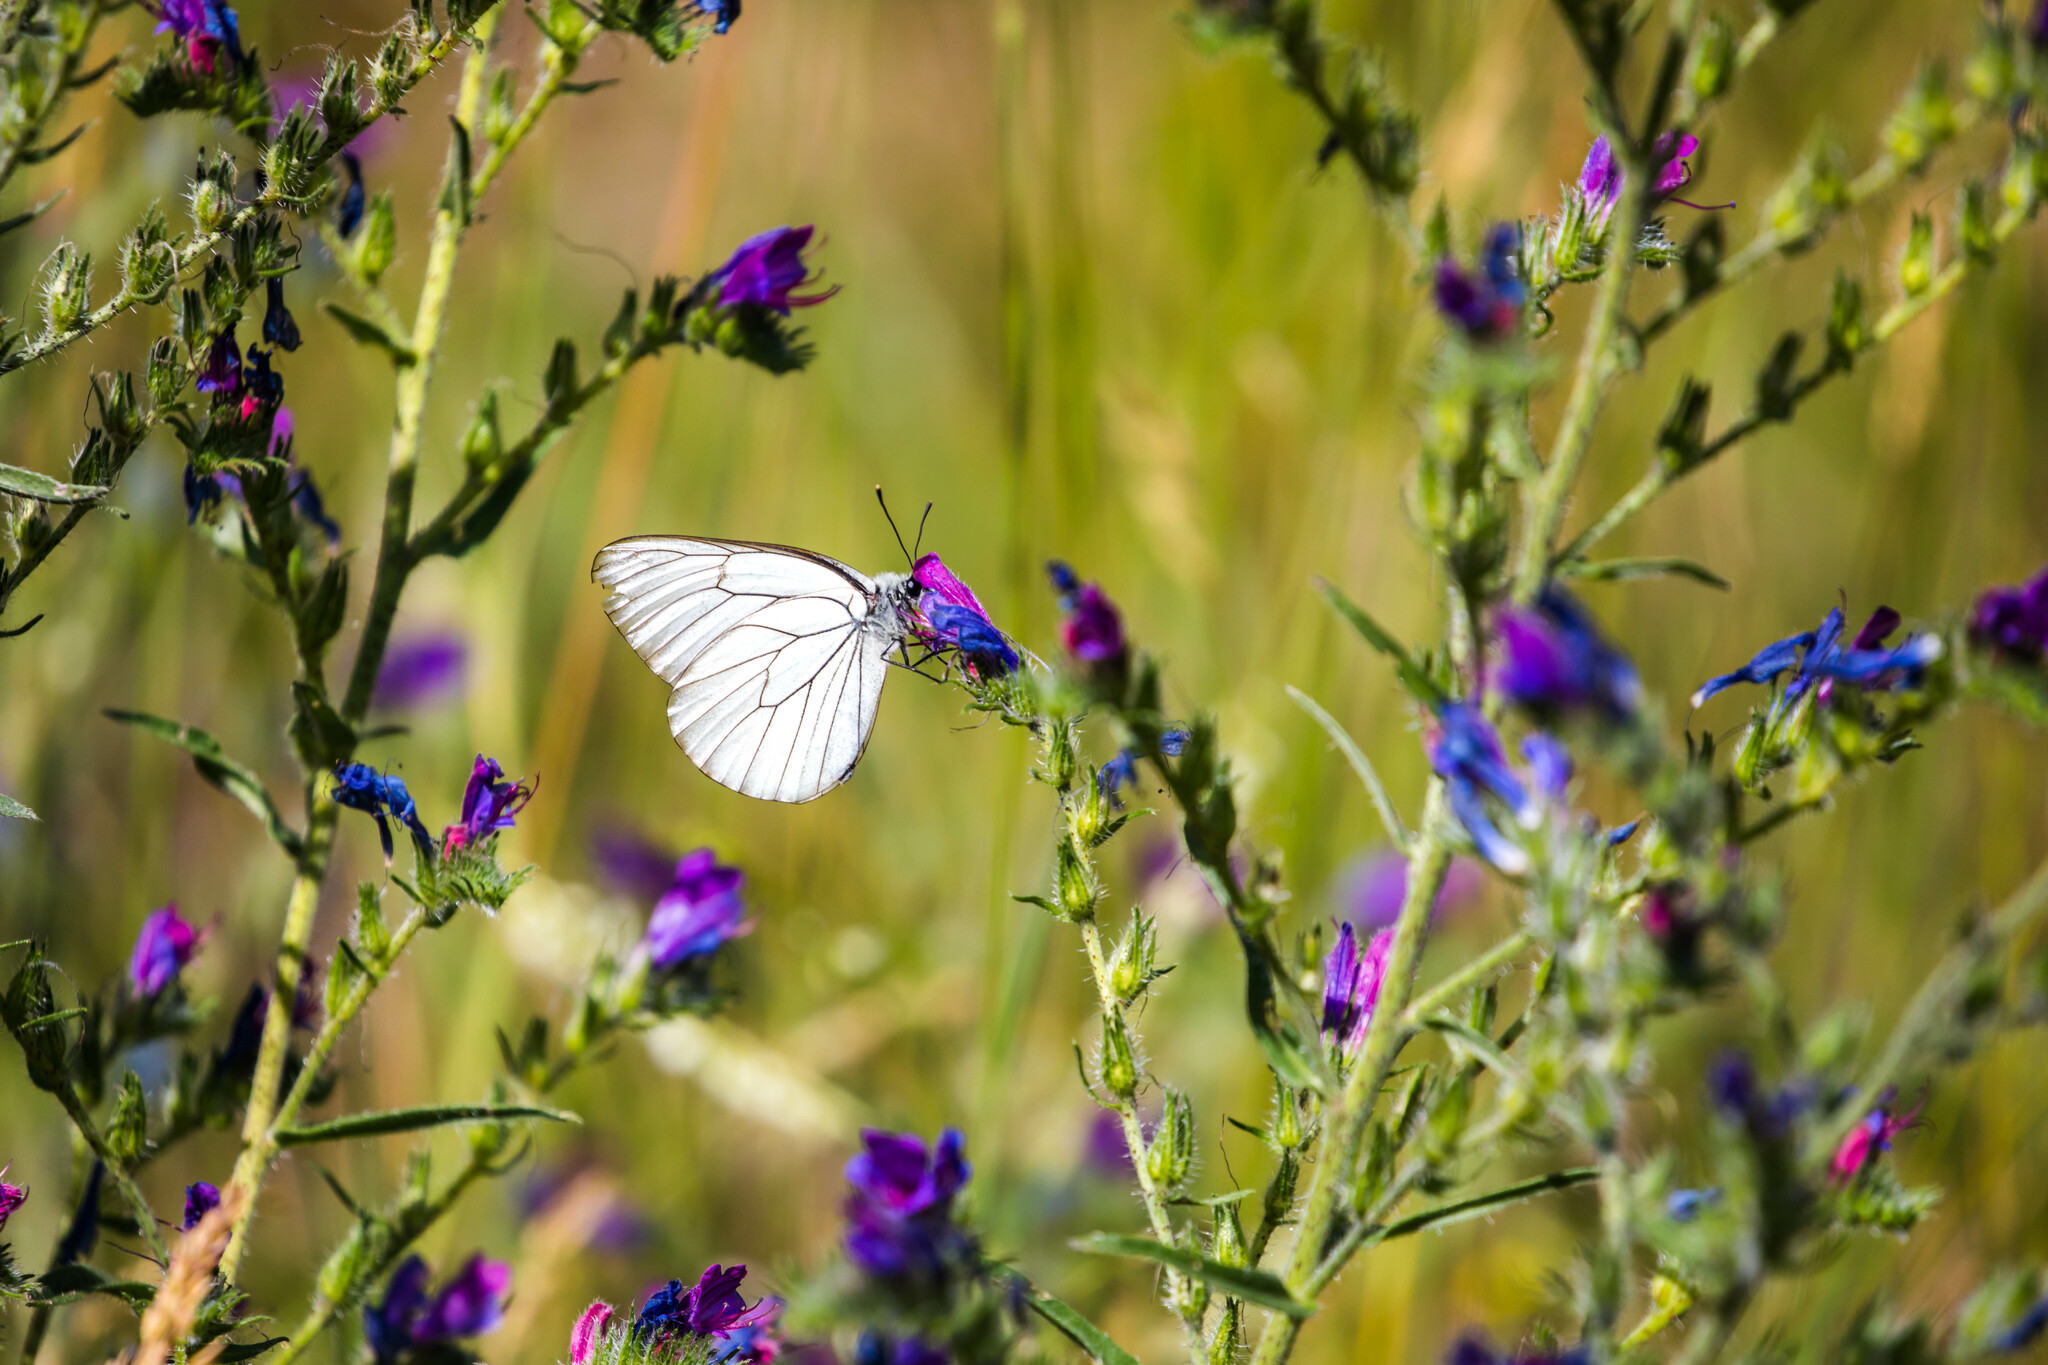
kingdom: Animalia
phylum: Arthropoda
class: Insecta
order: Lepidoptera
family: Pieridae
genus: Aporia
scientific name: Aporia crataegi
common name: Black-veined white
